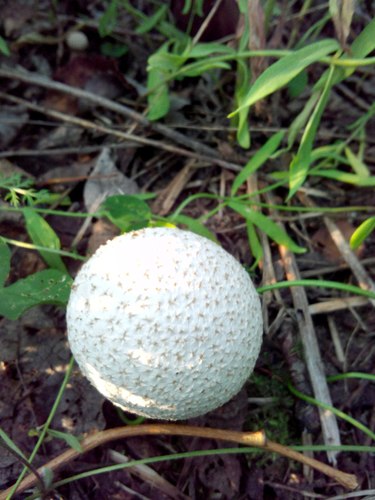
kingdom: Fungi
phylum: Basidiomycota
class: Agaricomycetes
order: Agaricales
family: Lycoperdaceae
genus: Calvatia
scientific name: Calvatia
